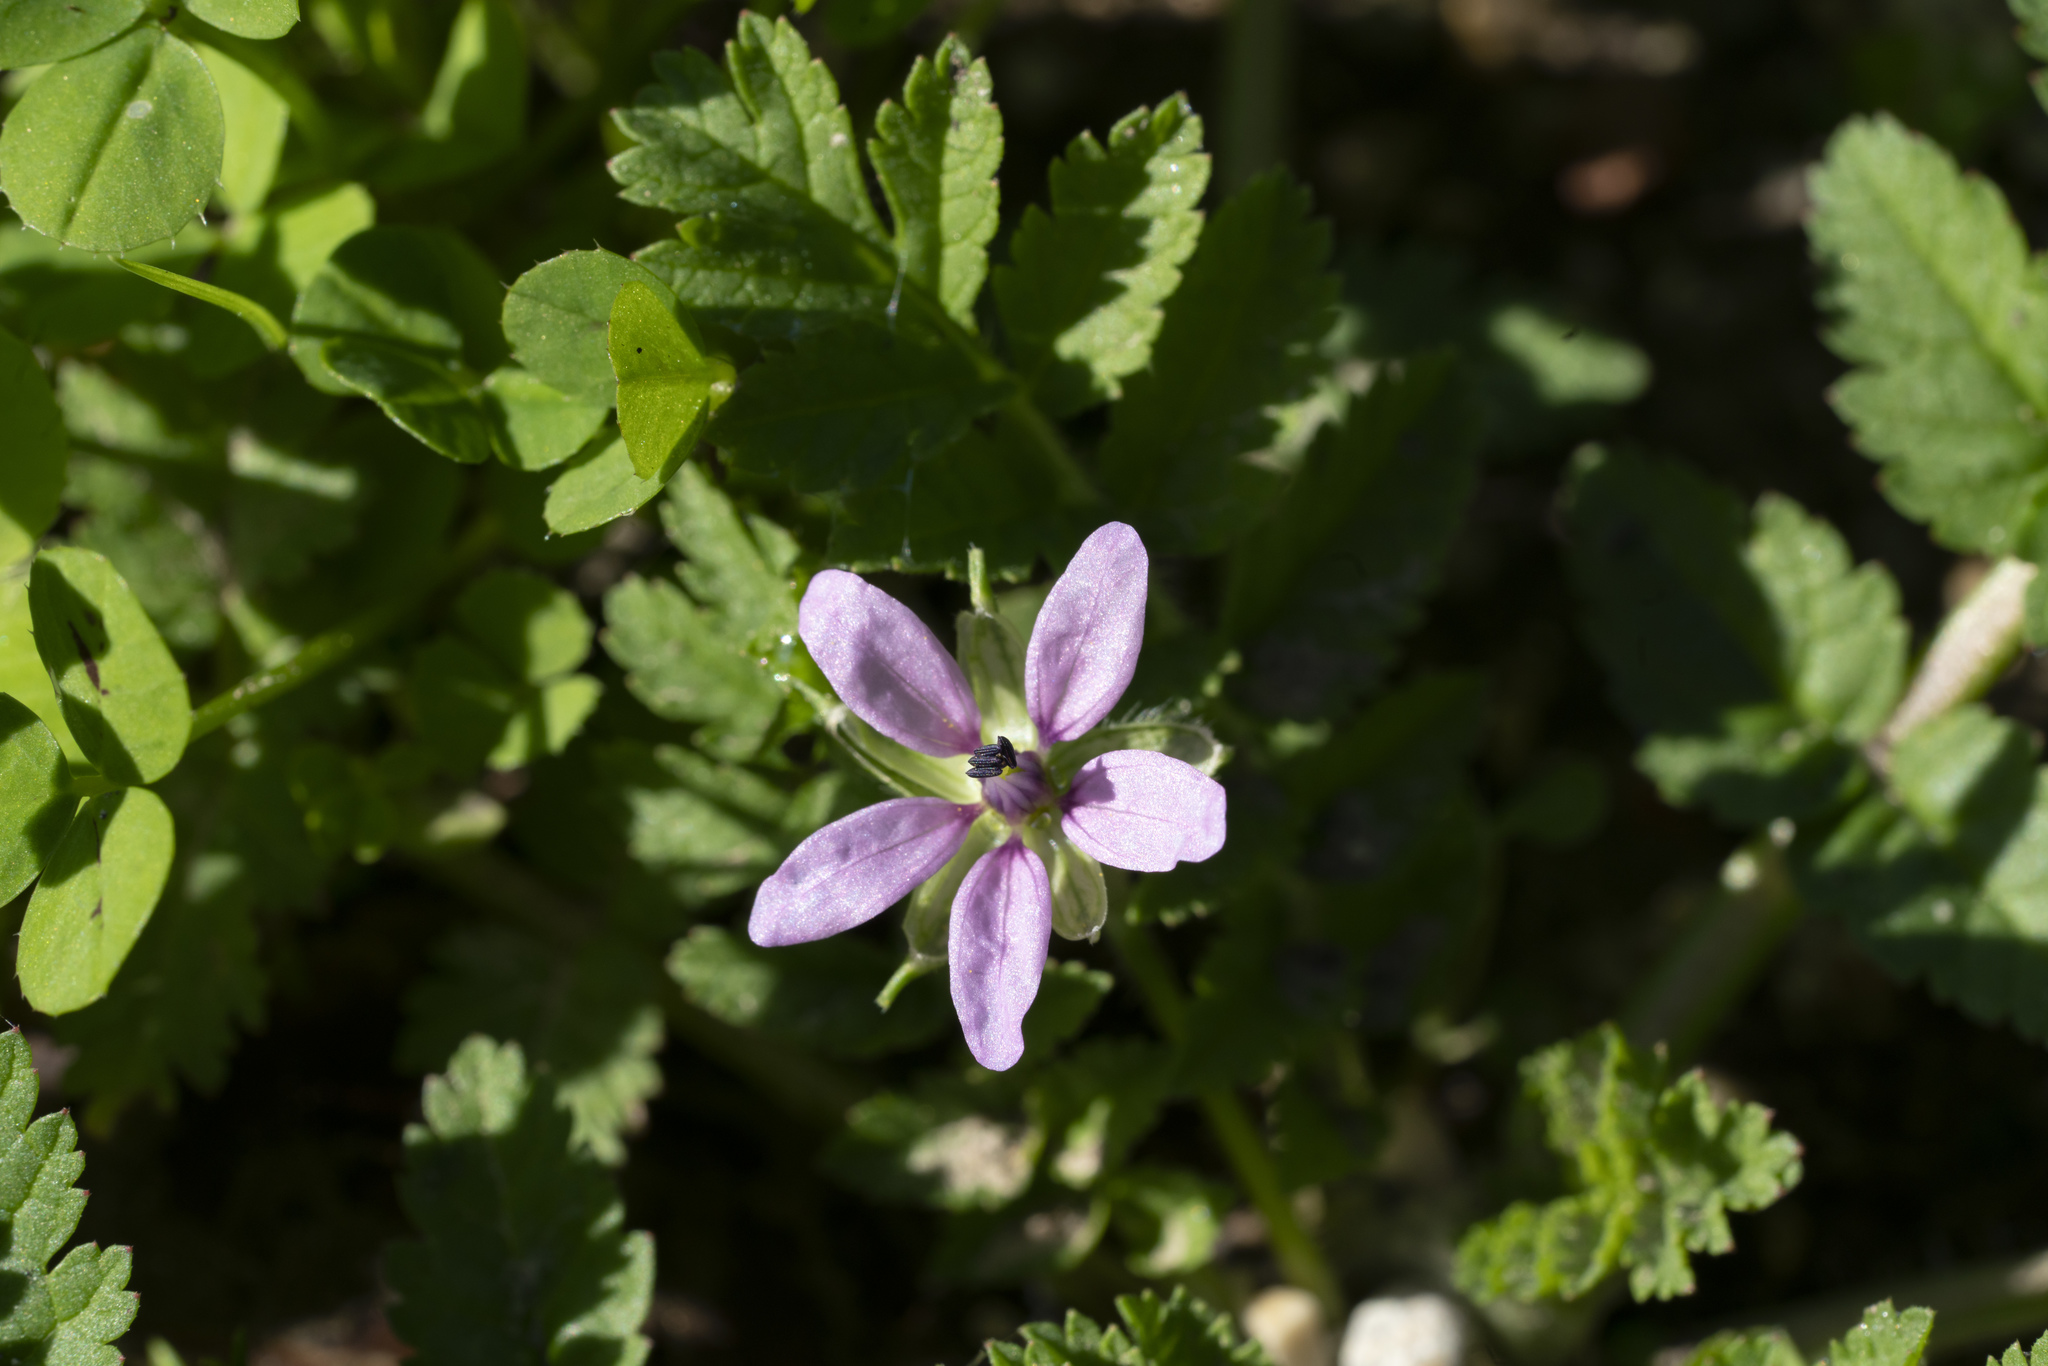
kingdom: Plantae
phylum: Tracheophyta
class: Magnoliopsida
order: Geraniales
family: Geraniaceae
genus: Erodium
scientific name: Erodium moschatum
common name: Musk stork's-bill
